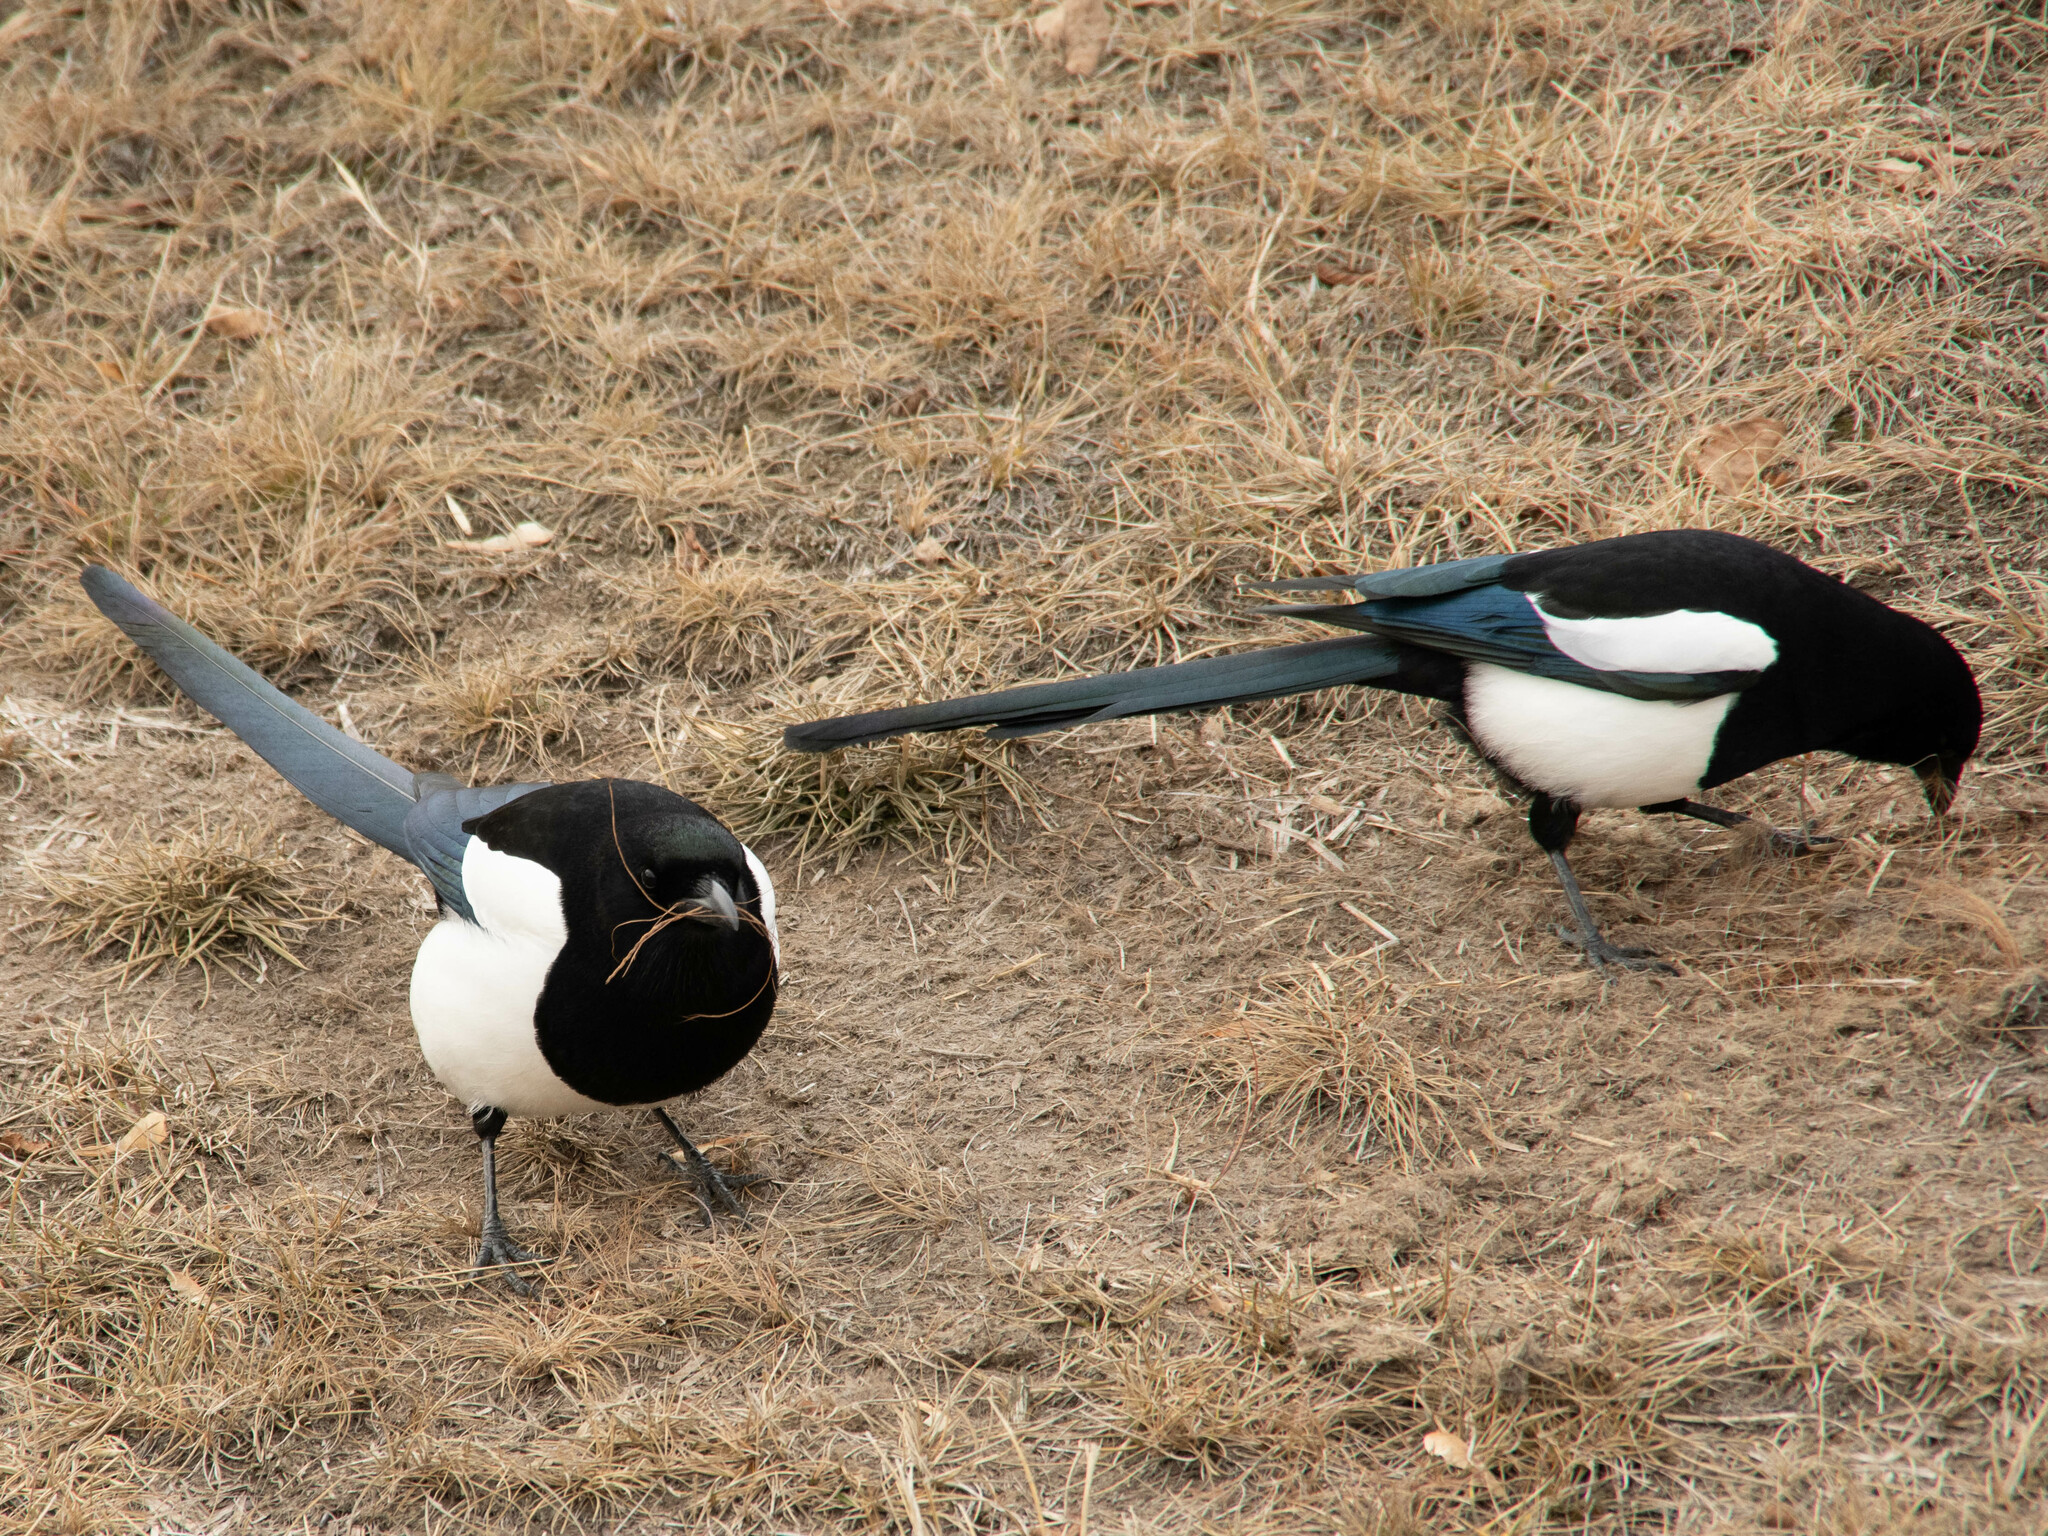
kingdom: Animalia
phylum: Chordata
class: Aves
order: Passeriformes
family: Corvidae
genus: Pica
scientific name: Pica hudsonia
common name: Black-billed magpie
